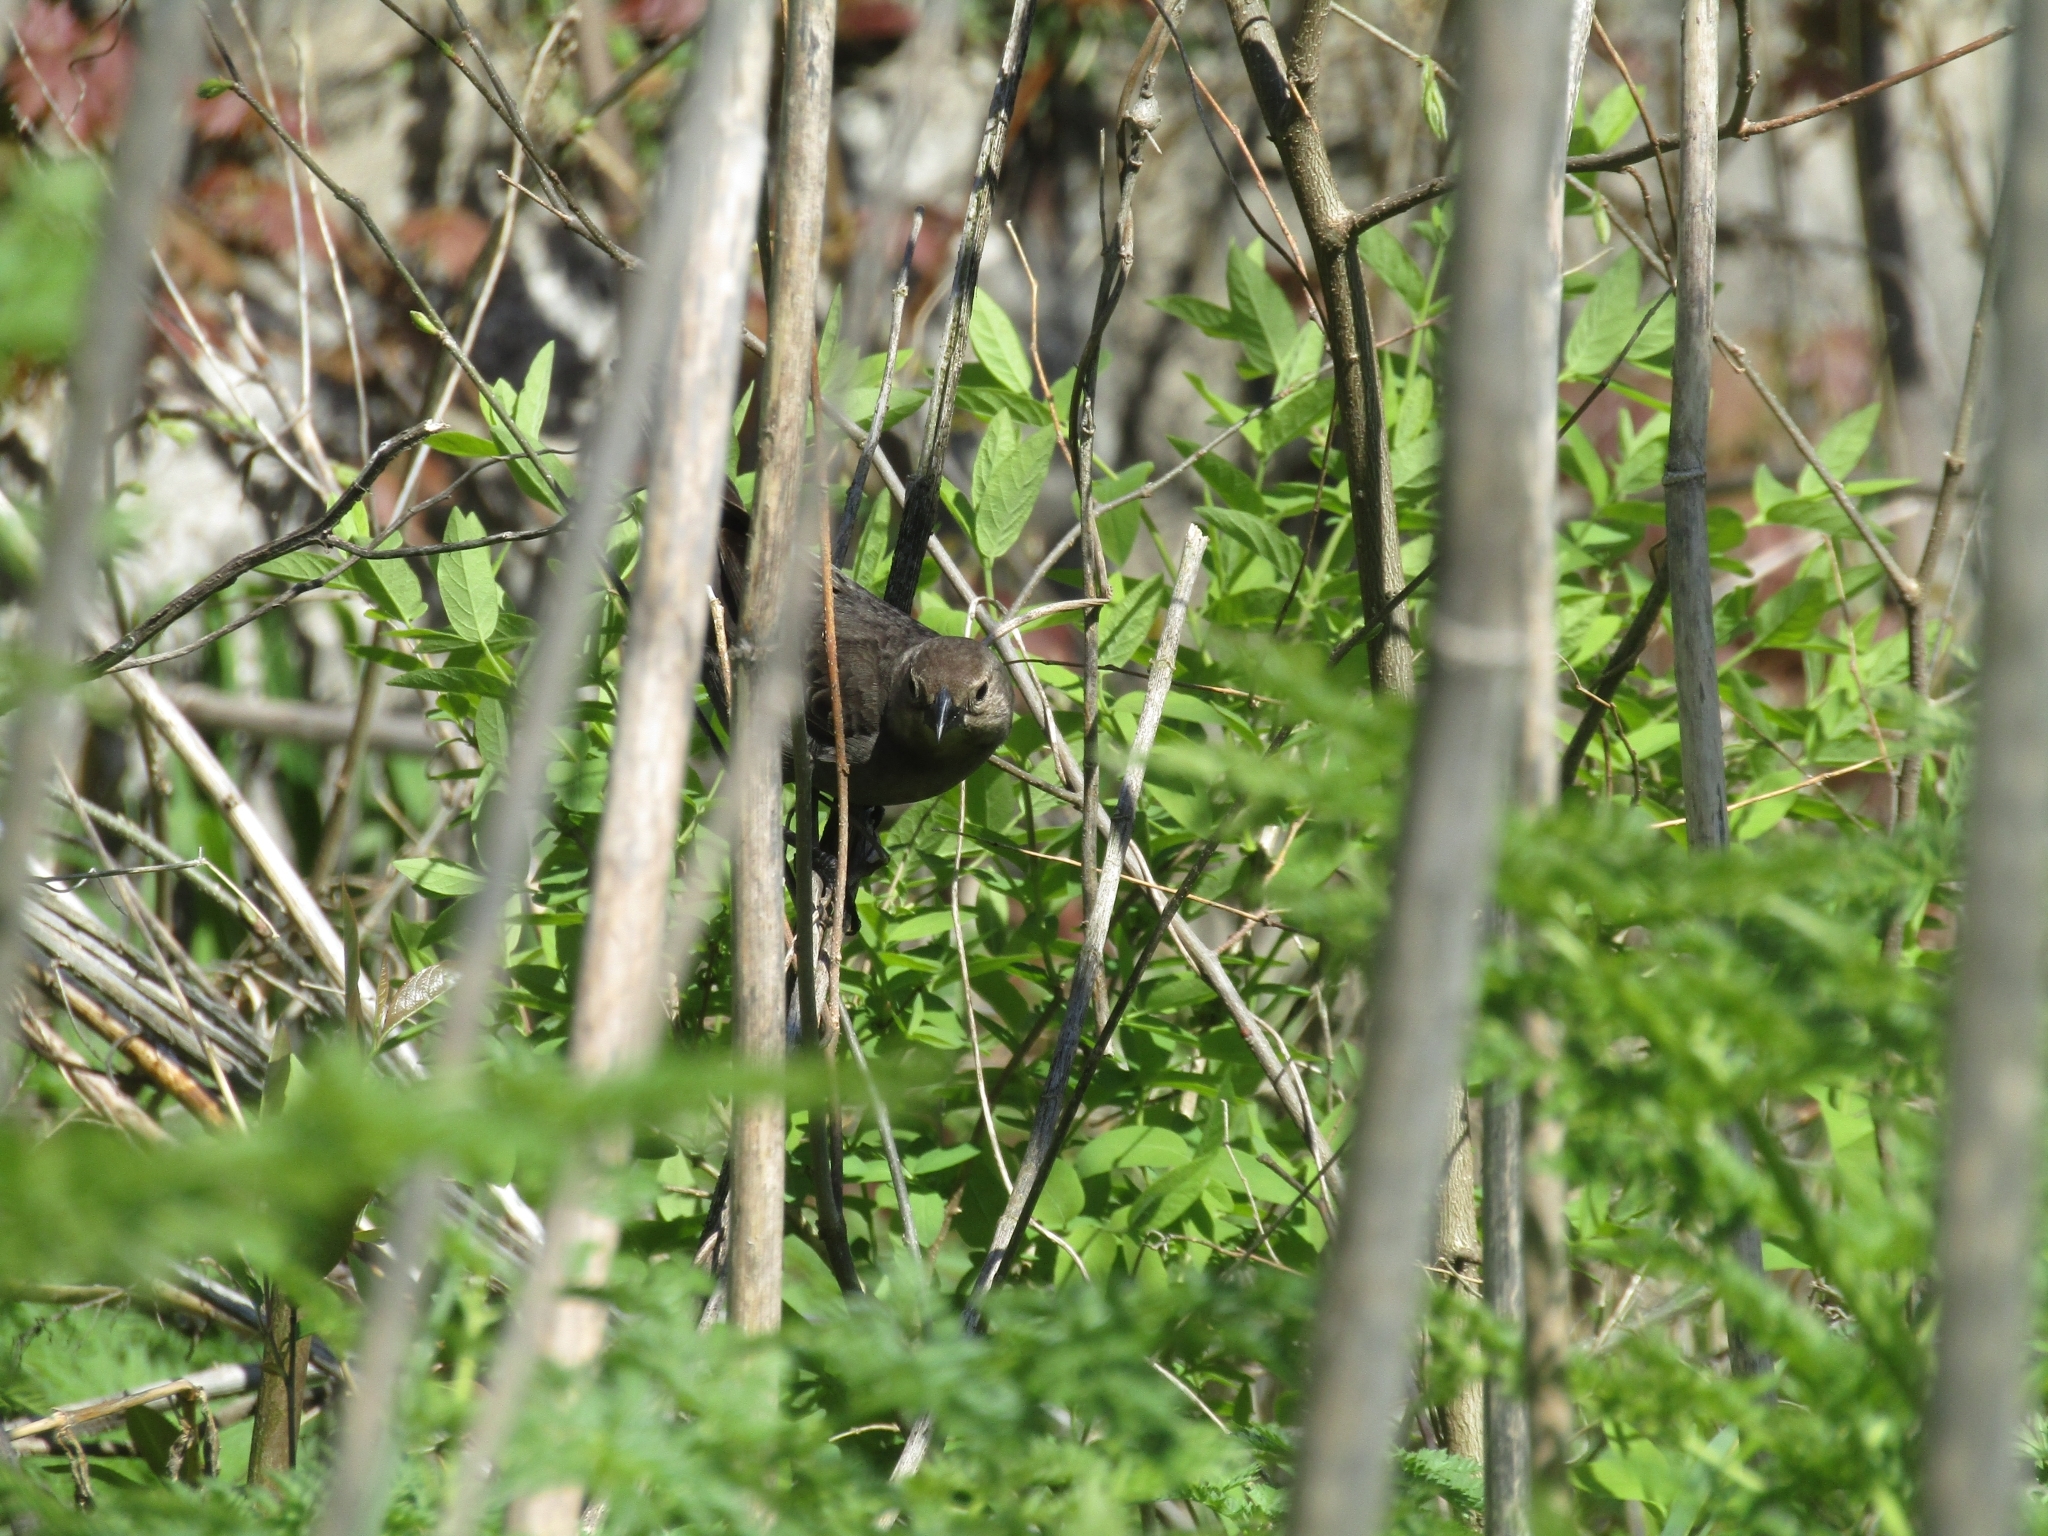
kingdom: Animalia
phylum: Chordata
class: Aves
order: Passeriformes
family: Icteridae
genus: Molothrus
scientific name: Molothrus ater
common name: Brown-headed cowbird
